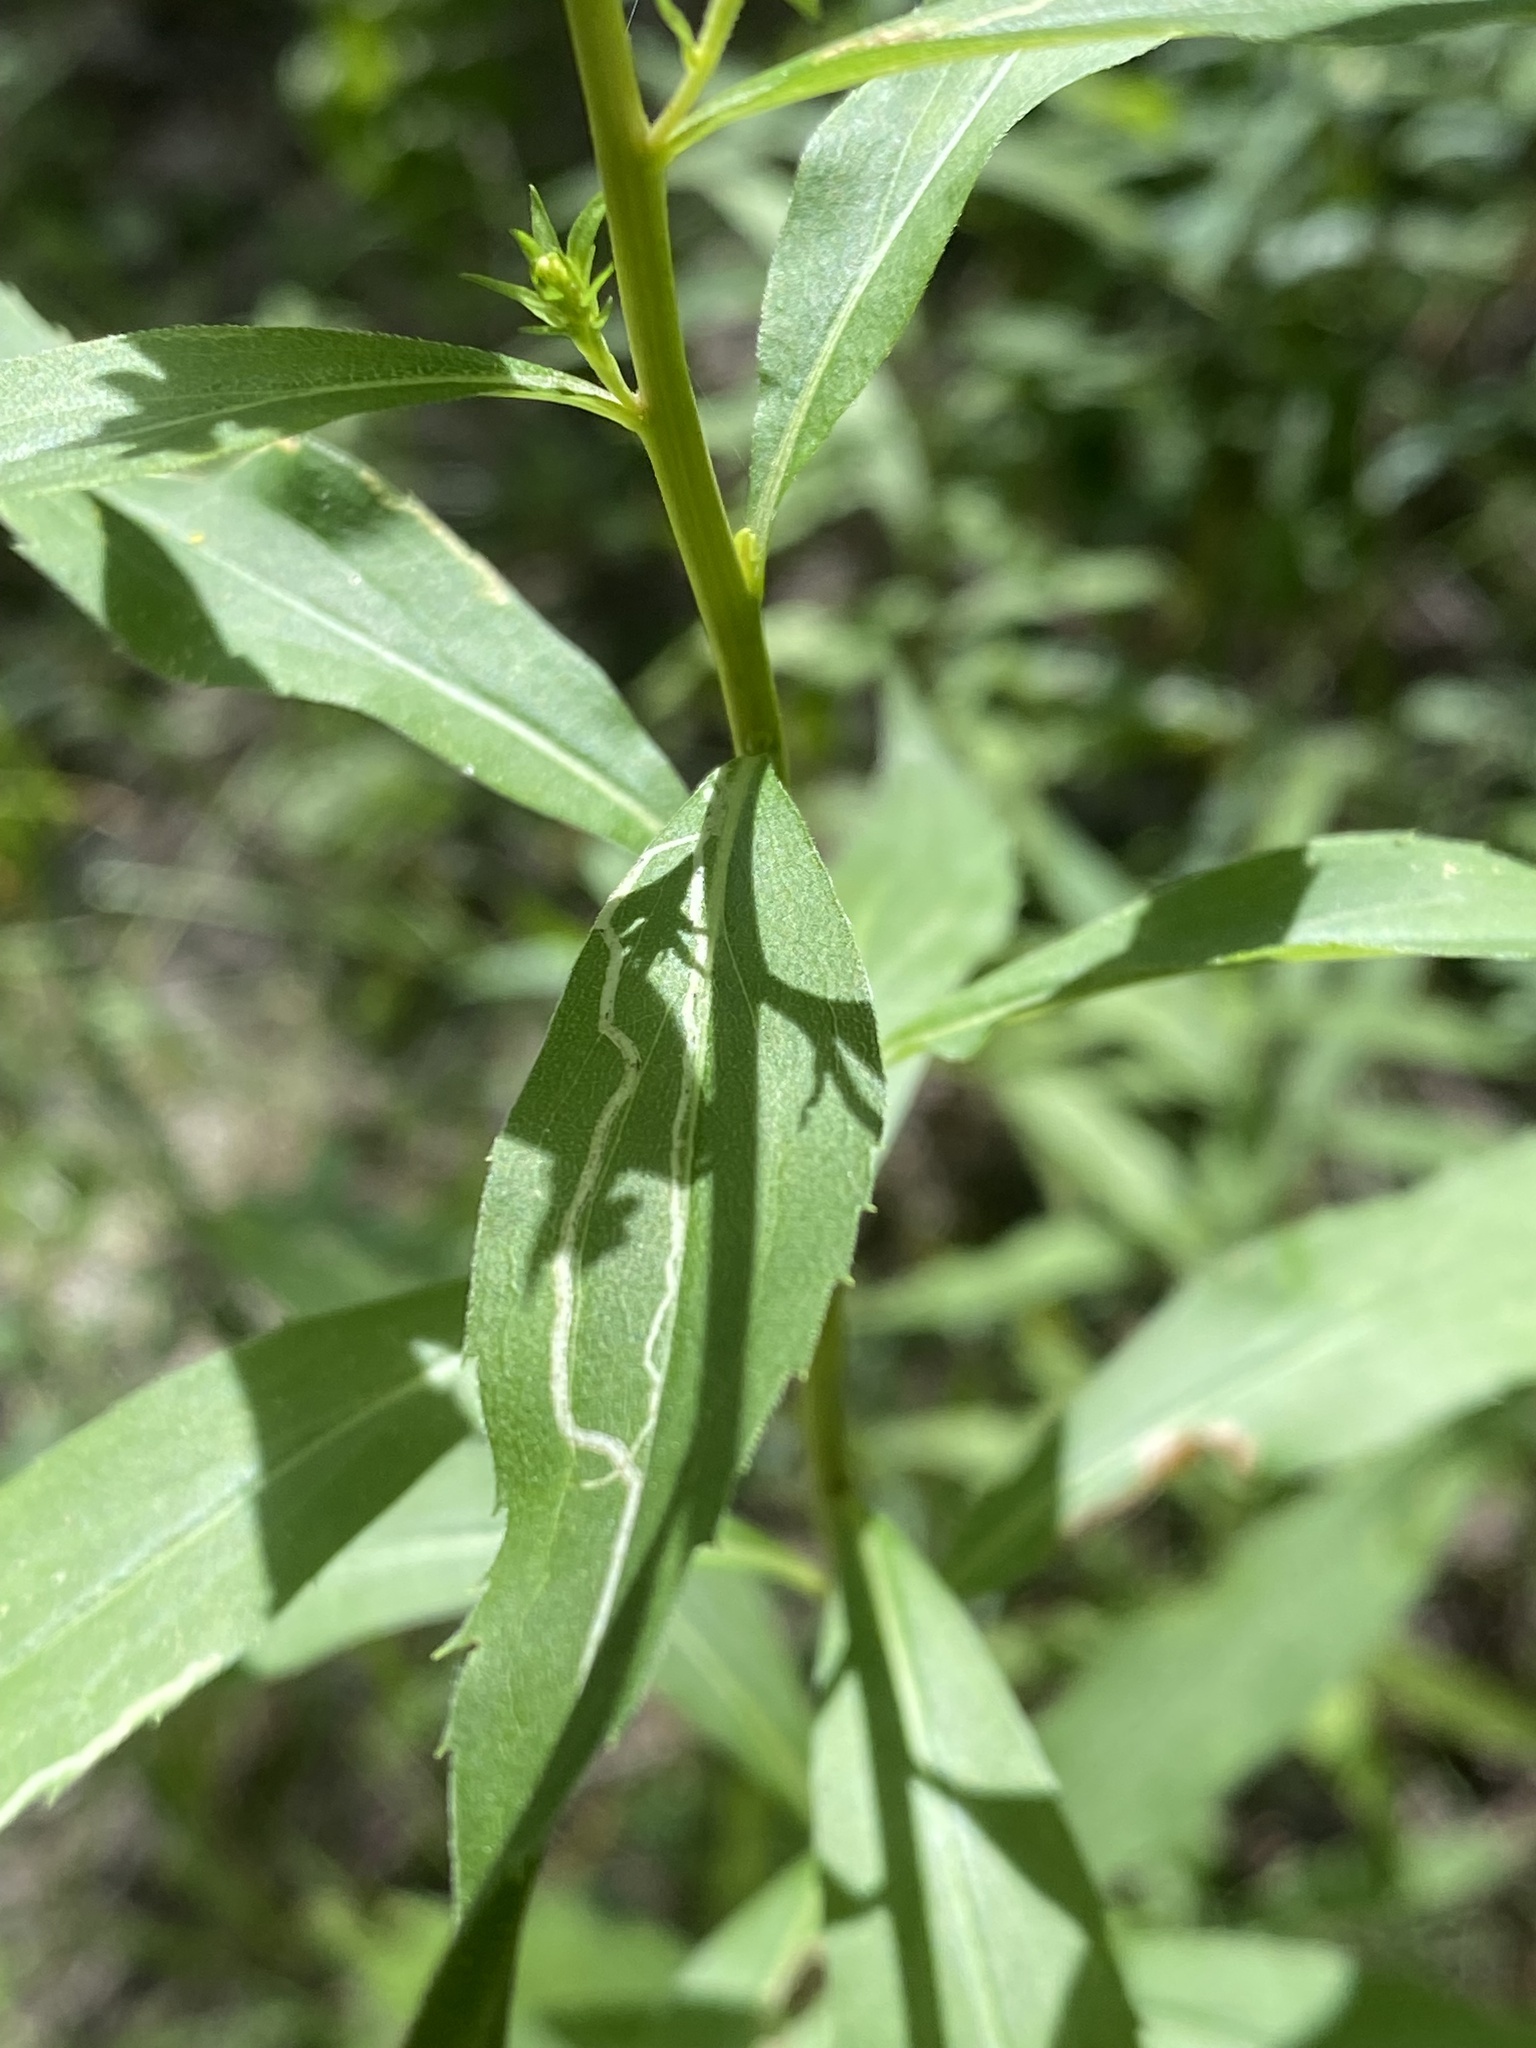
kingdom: Plantae
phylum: Tracheophyta
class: Magnoliopsida
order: Asterales
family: Asteraceae
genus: Solidago
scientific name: Solidago juncea
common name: Early goldenrod
